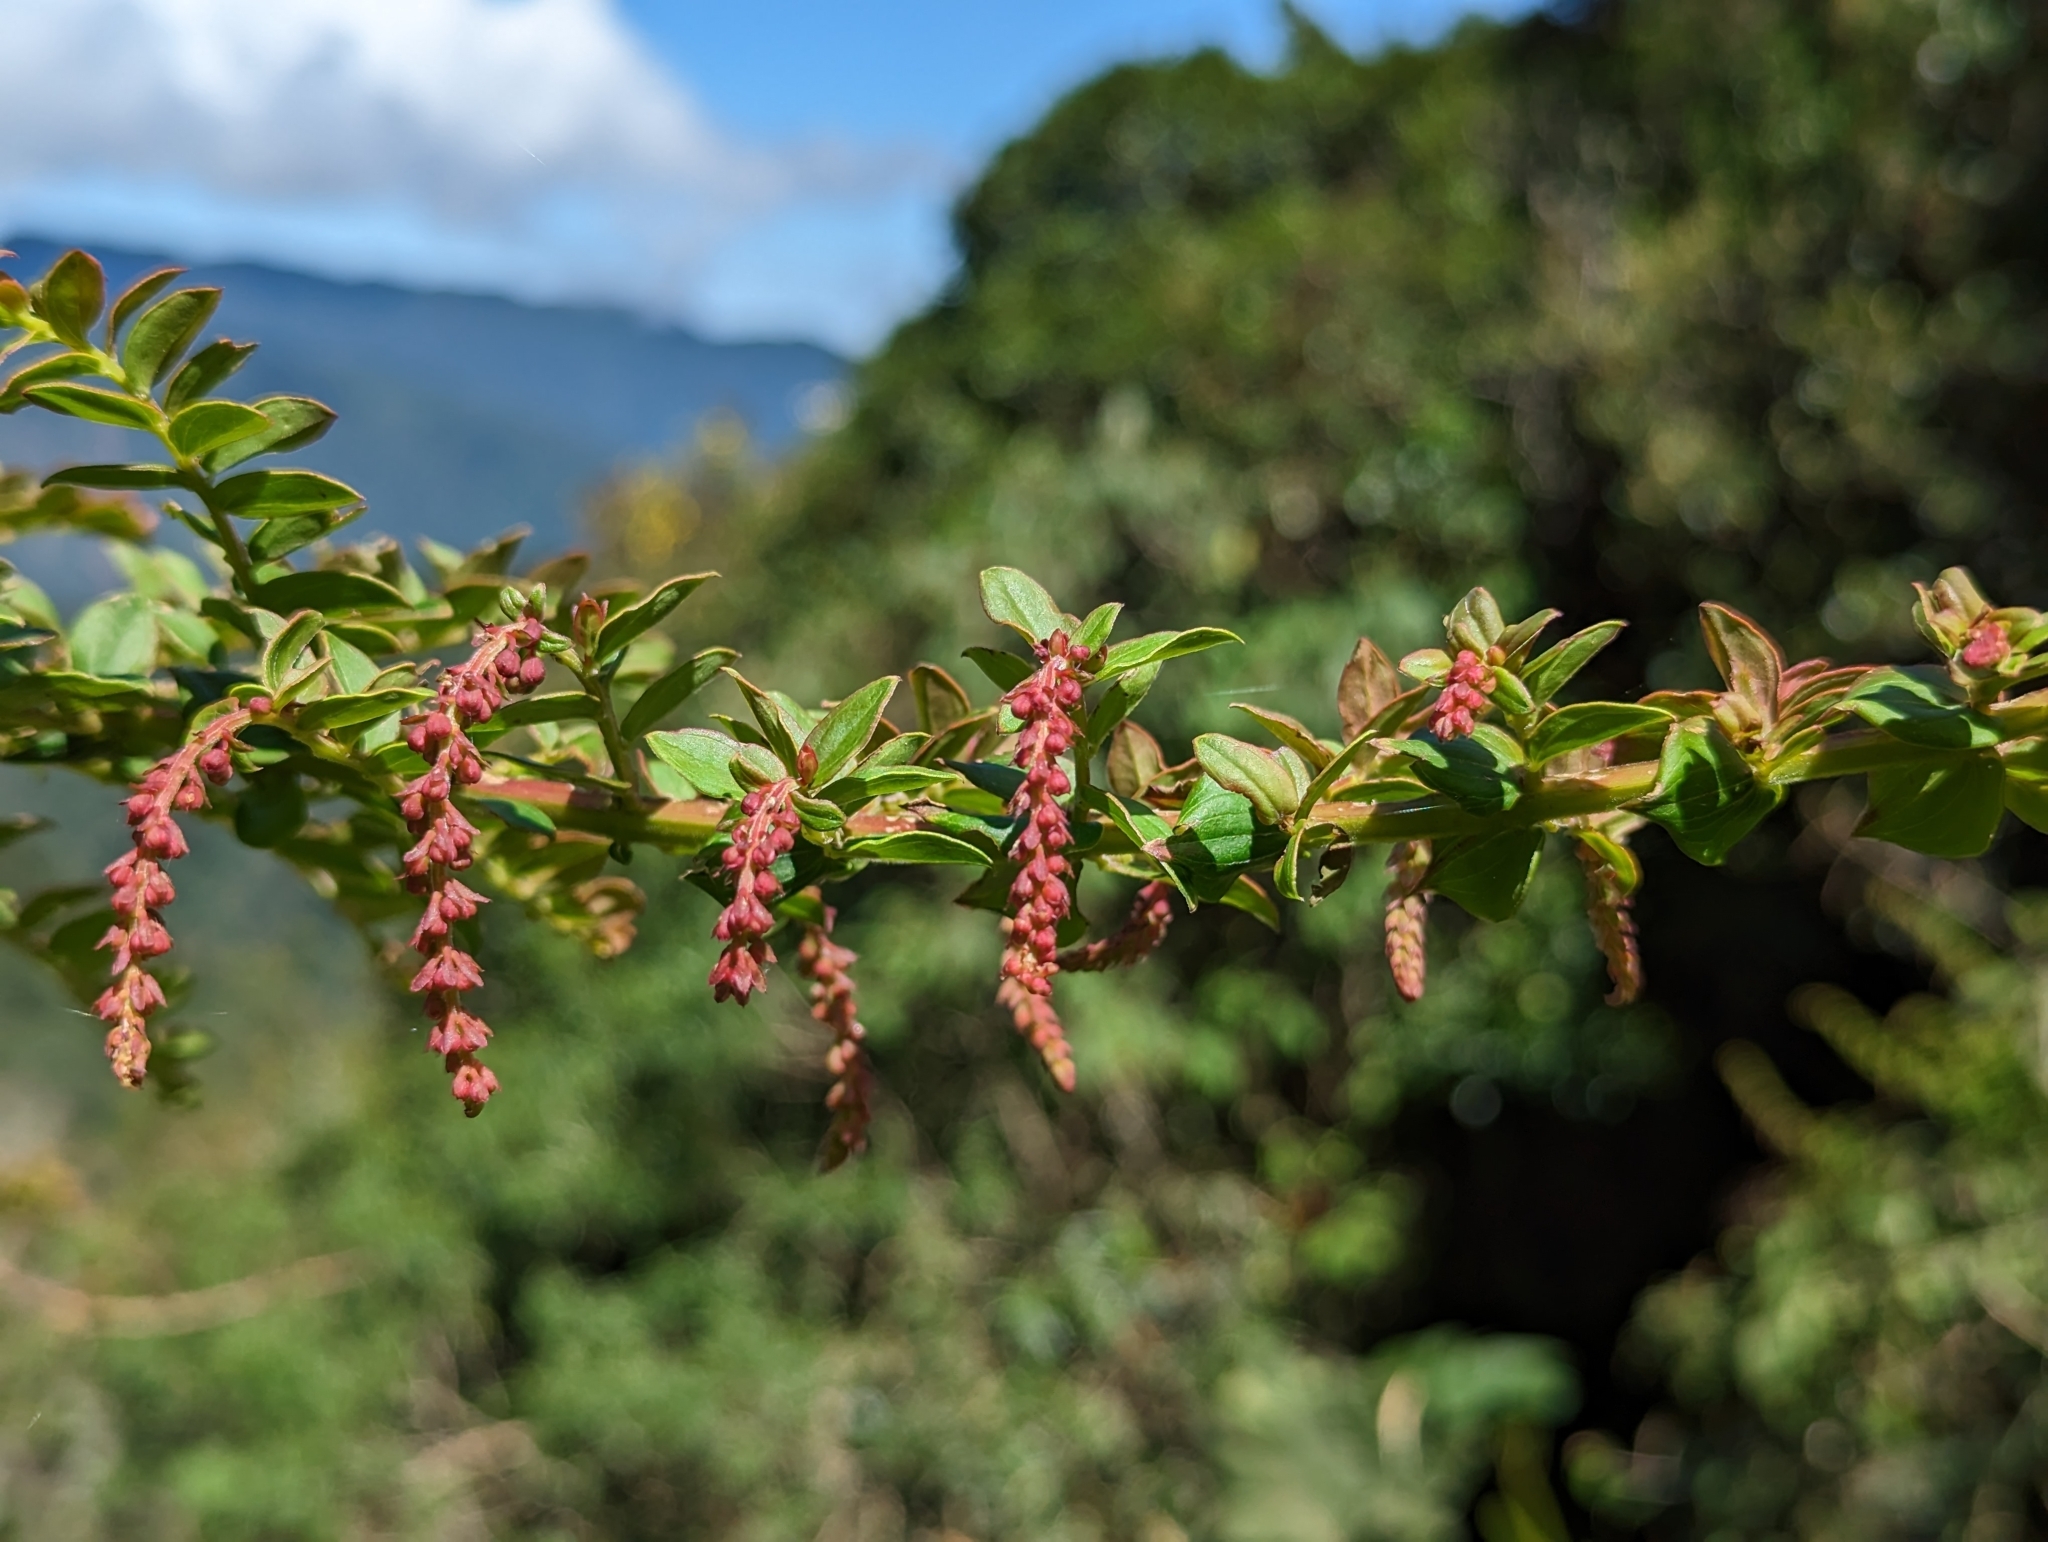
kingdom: Plantae
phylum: Tracheophyta
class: Magnoliopsida
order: Cucurbitales
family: Coriariaceae
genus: Coriaria
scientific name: Coriaria ruscifolia
